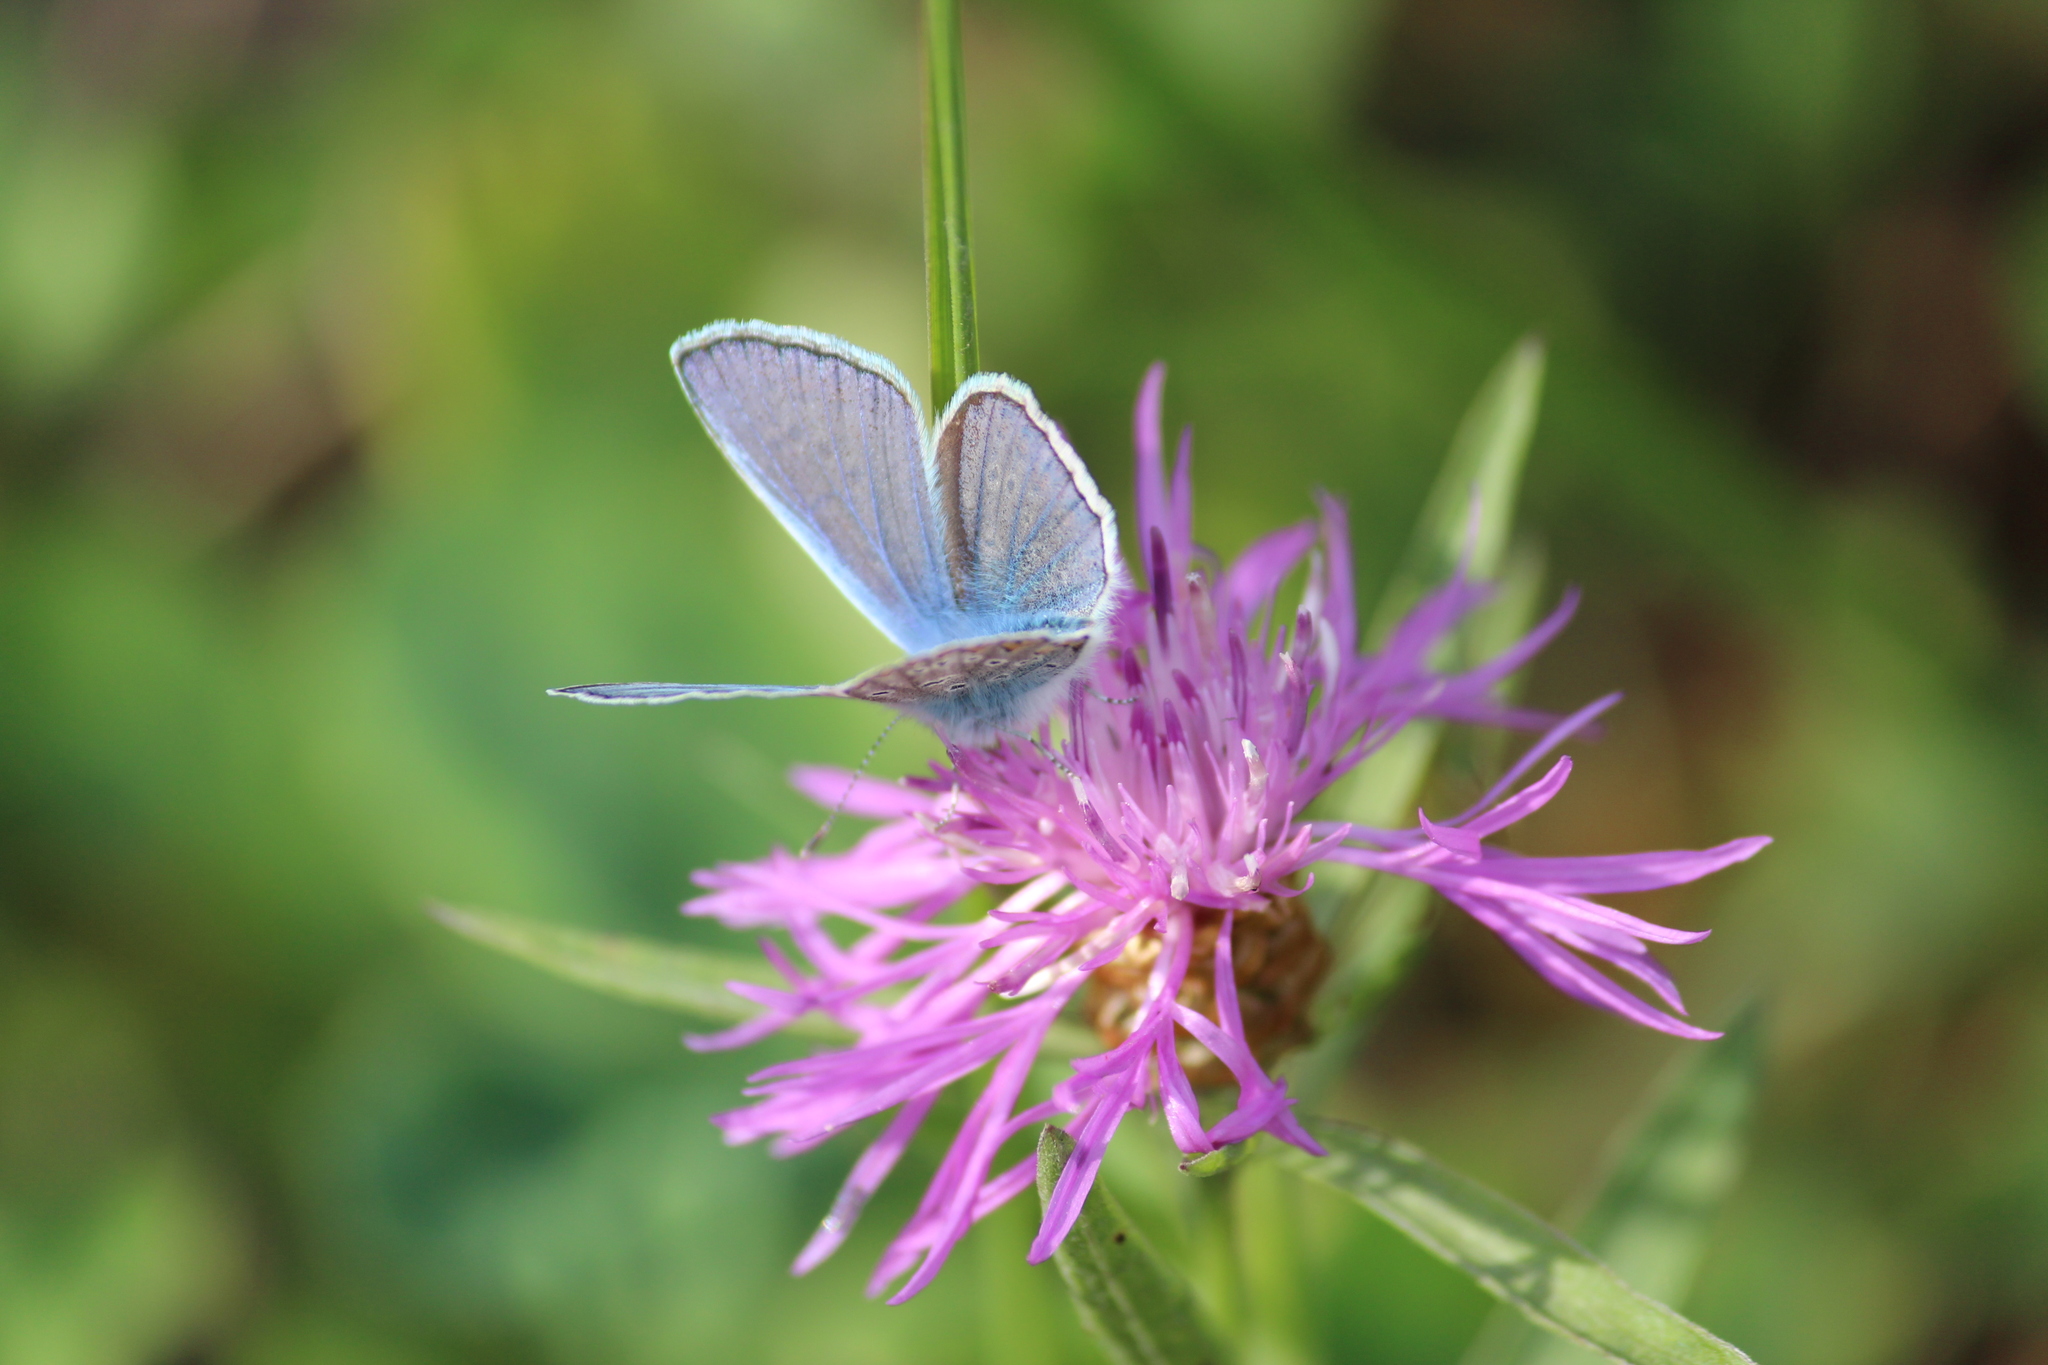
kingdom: Animalia
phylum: Arthropoda
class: Insecta
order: Lepidoptera
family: Lycaenidae
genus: Polyommatus
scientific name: Polyommatus icarus
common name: Common blue
